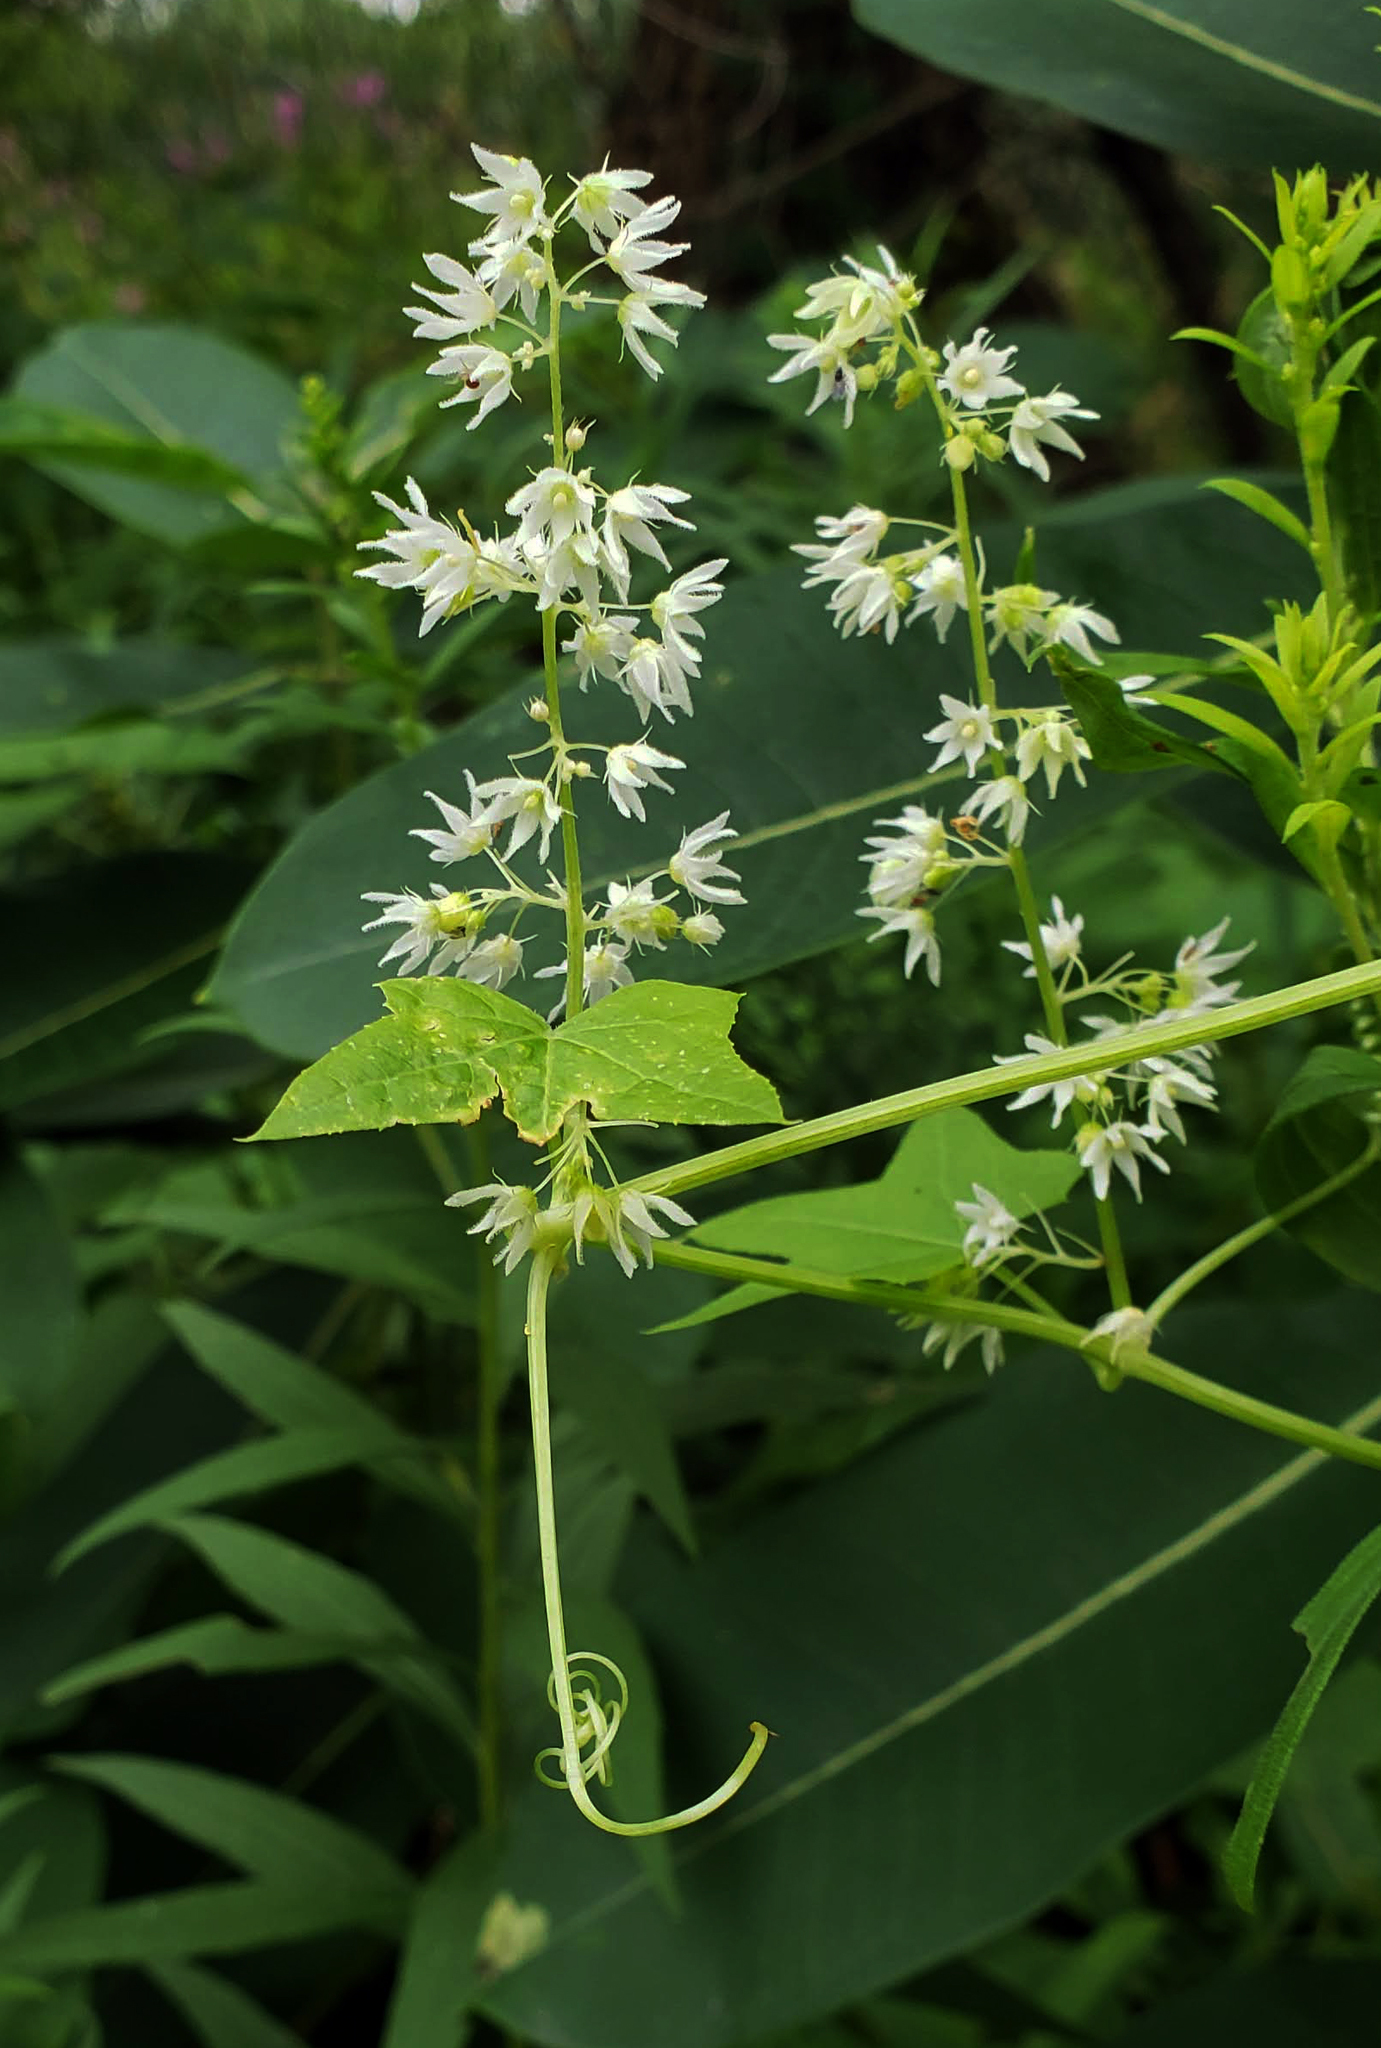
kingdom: Plantae
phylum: Tracheophyta
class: Magnoliopsida
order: Cucurbitales
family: Cucurbitaceae
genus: Echinocystis
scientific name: Echinocystis lobata
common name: Wild cucumber
